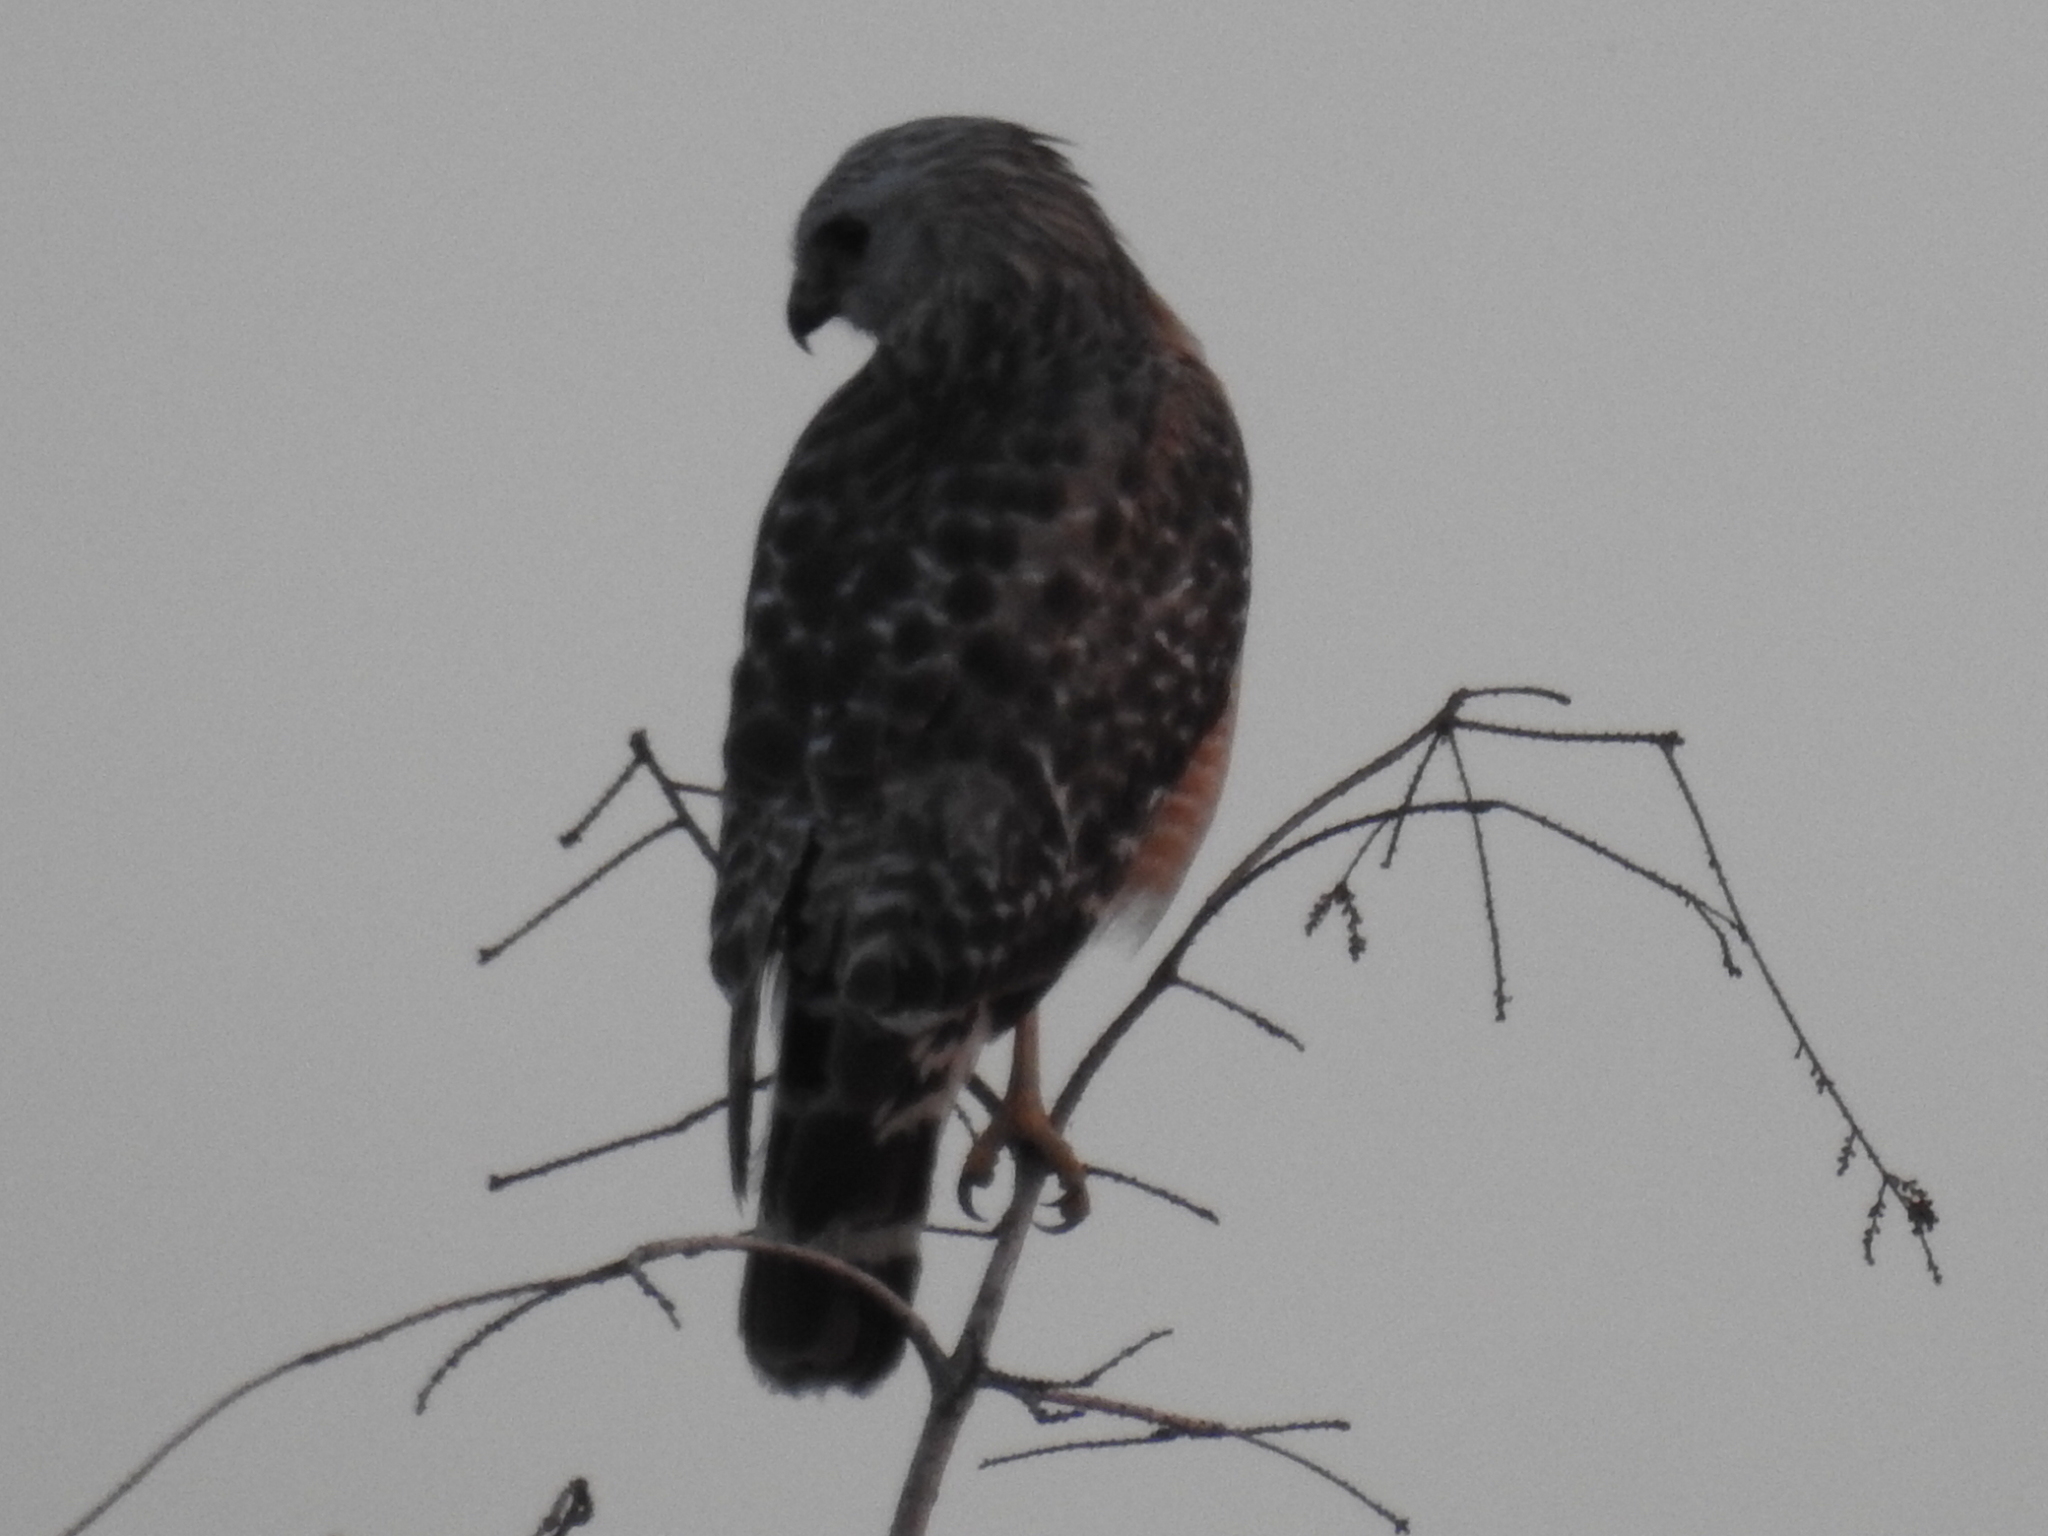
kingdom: Animalia
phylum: Chordata
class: Aves
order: Accipitriformes
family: Accipitridae
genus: Buteo
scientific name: Buteo lineatus
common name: Red-shouldered hawk
